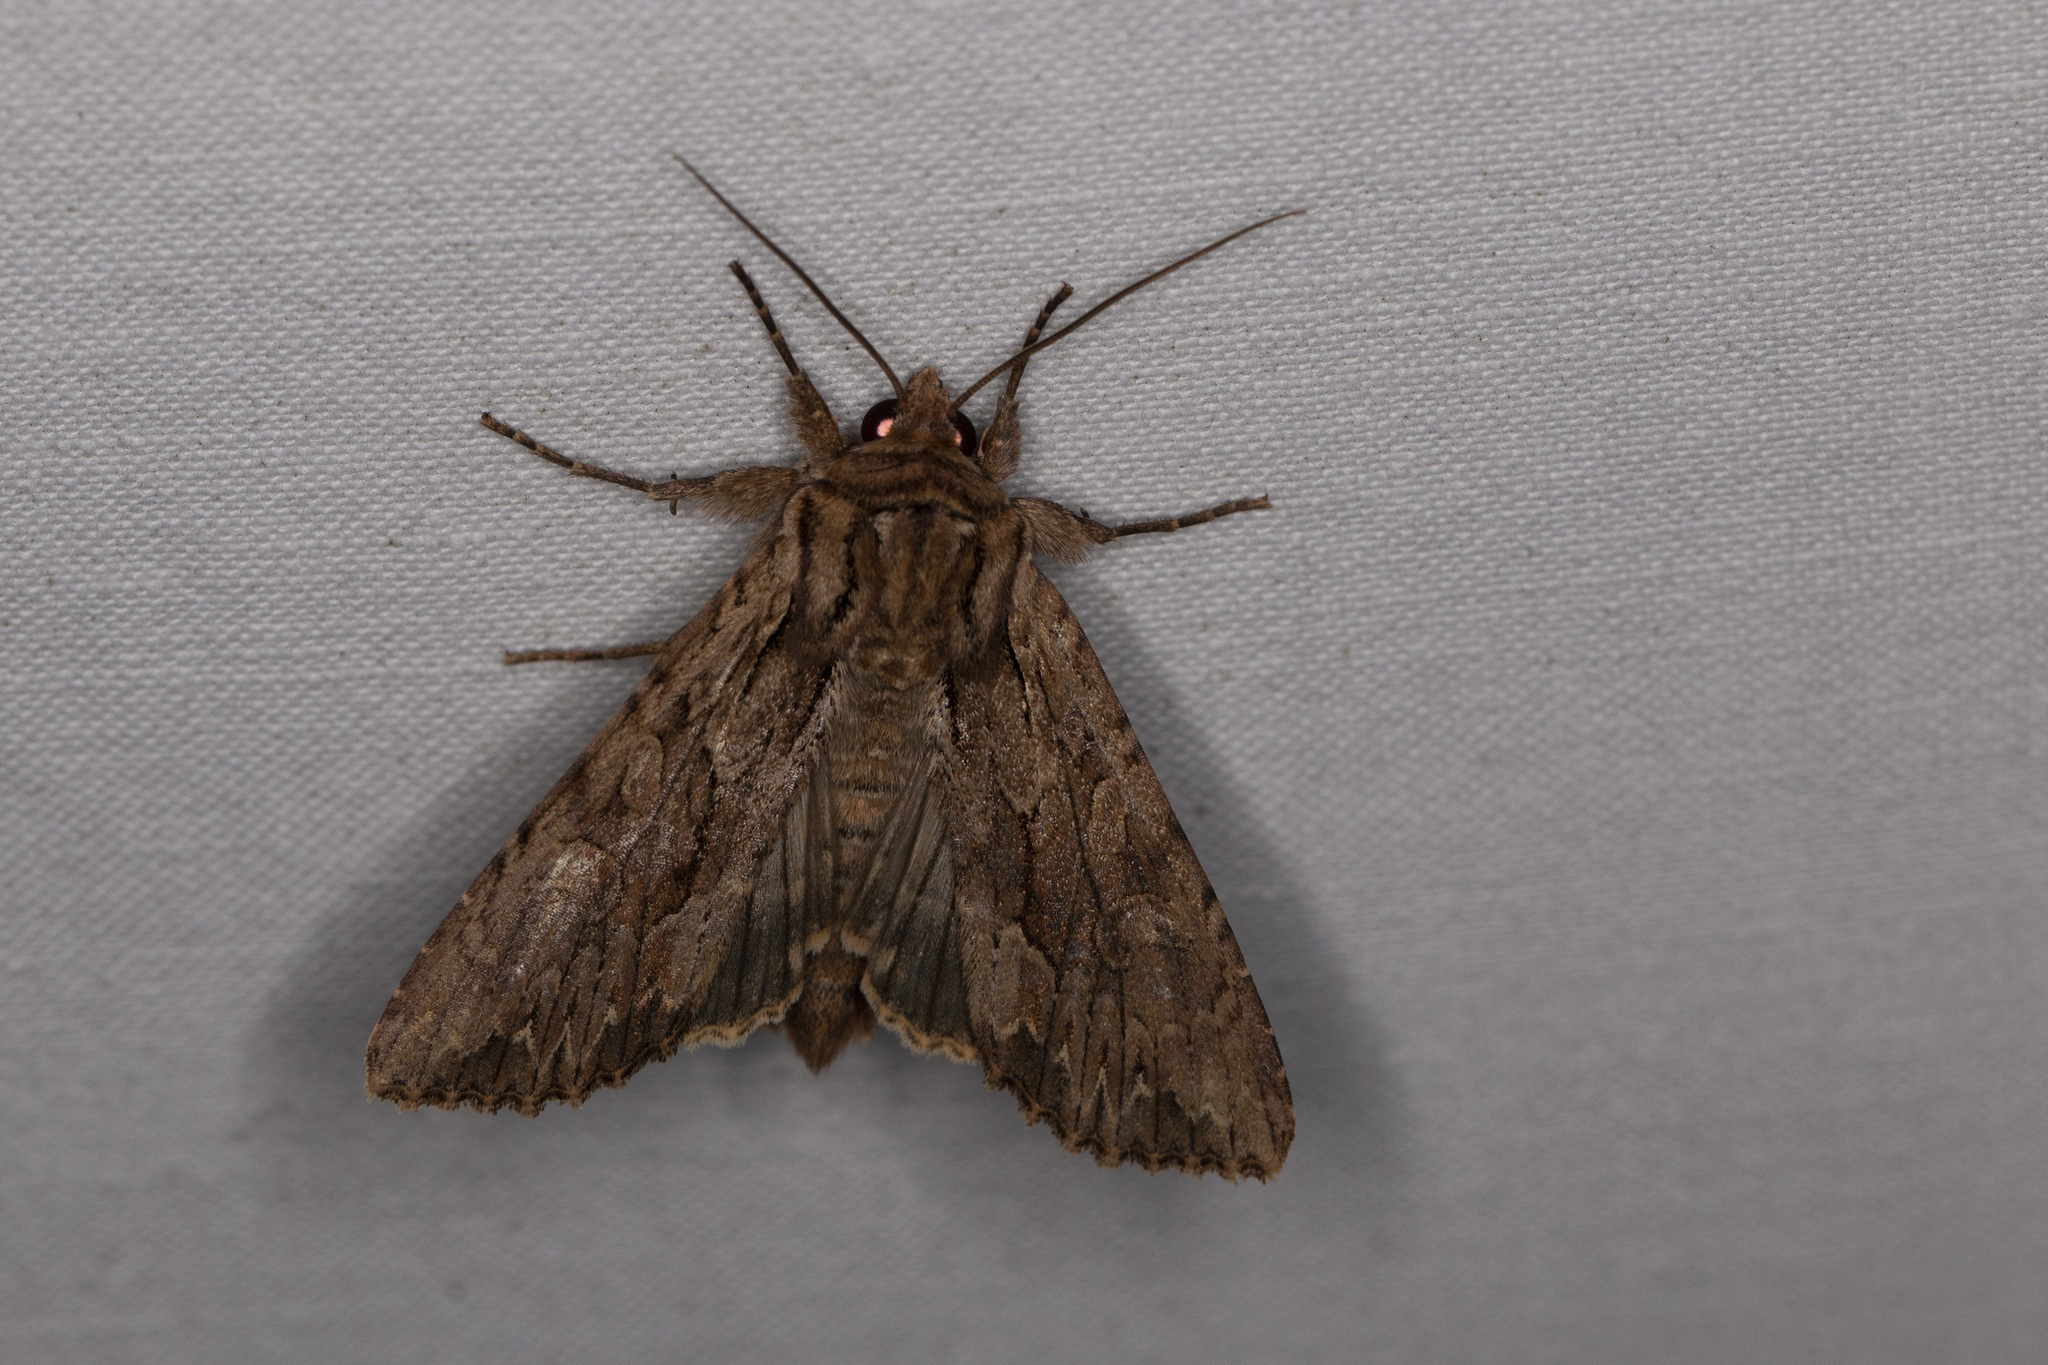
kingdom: Animalia
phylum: Arthropoda
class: Insecta
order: Lepidoptera
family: Noctuidae
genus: Apamea
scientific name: Apamea monoglypha
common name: Dark arches
